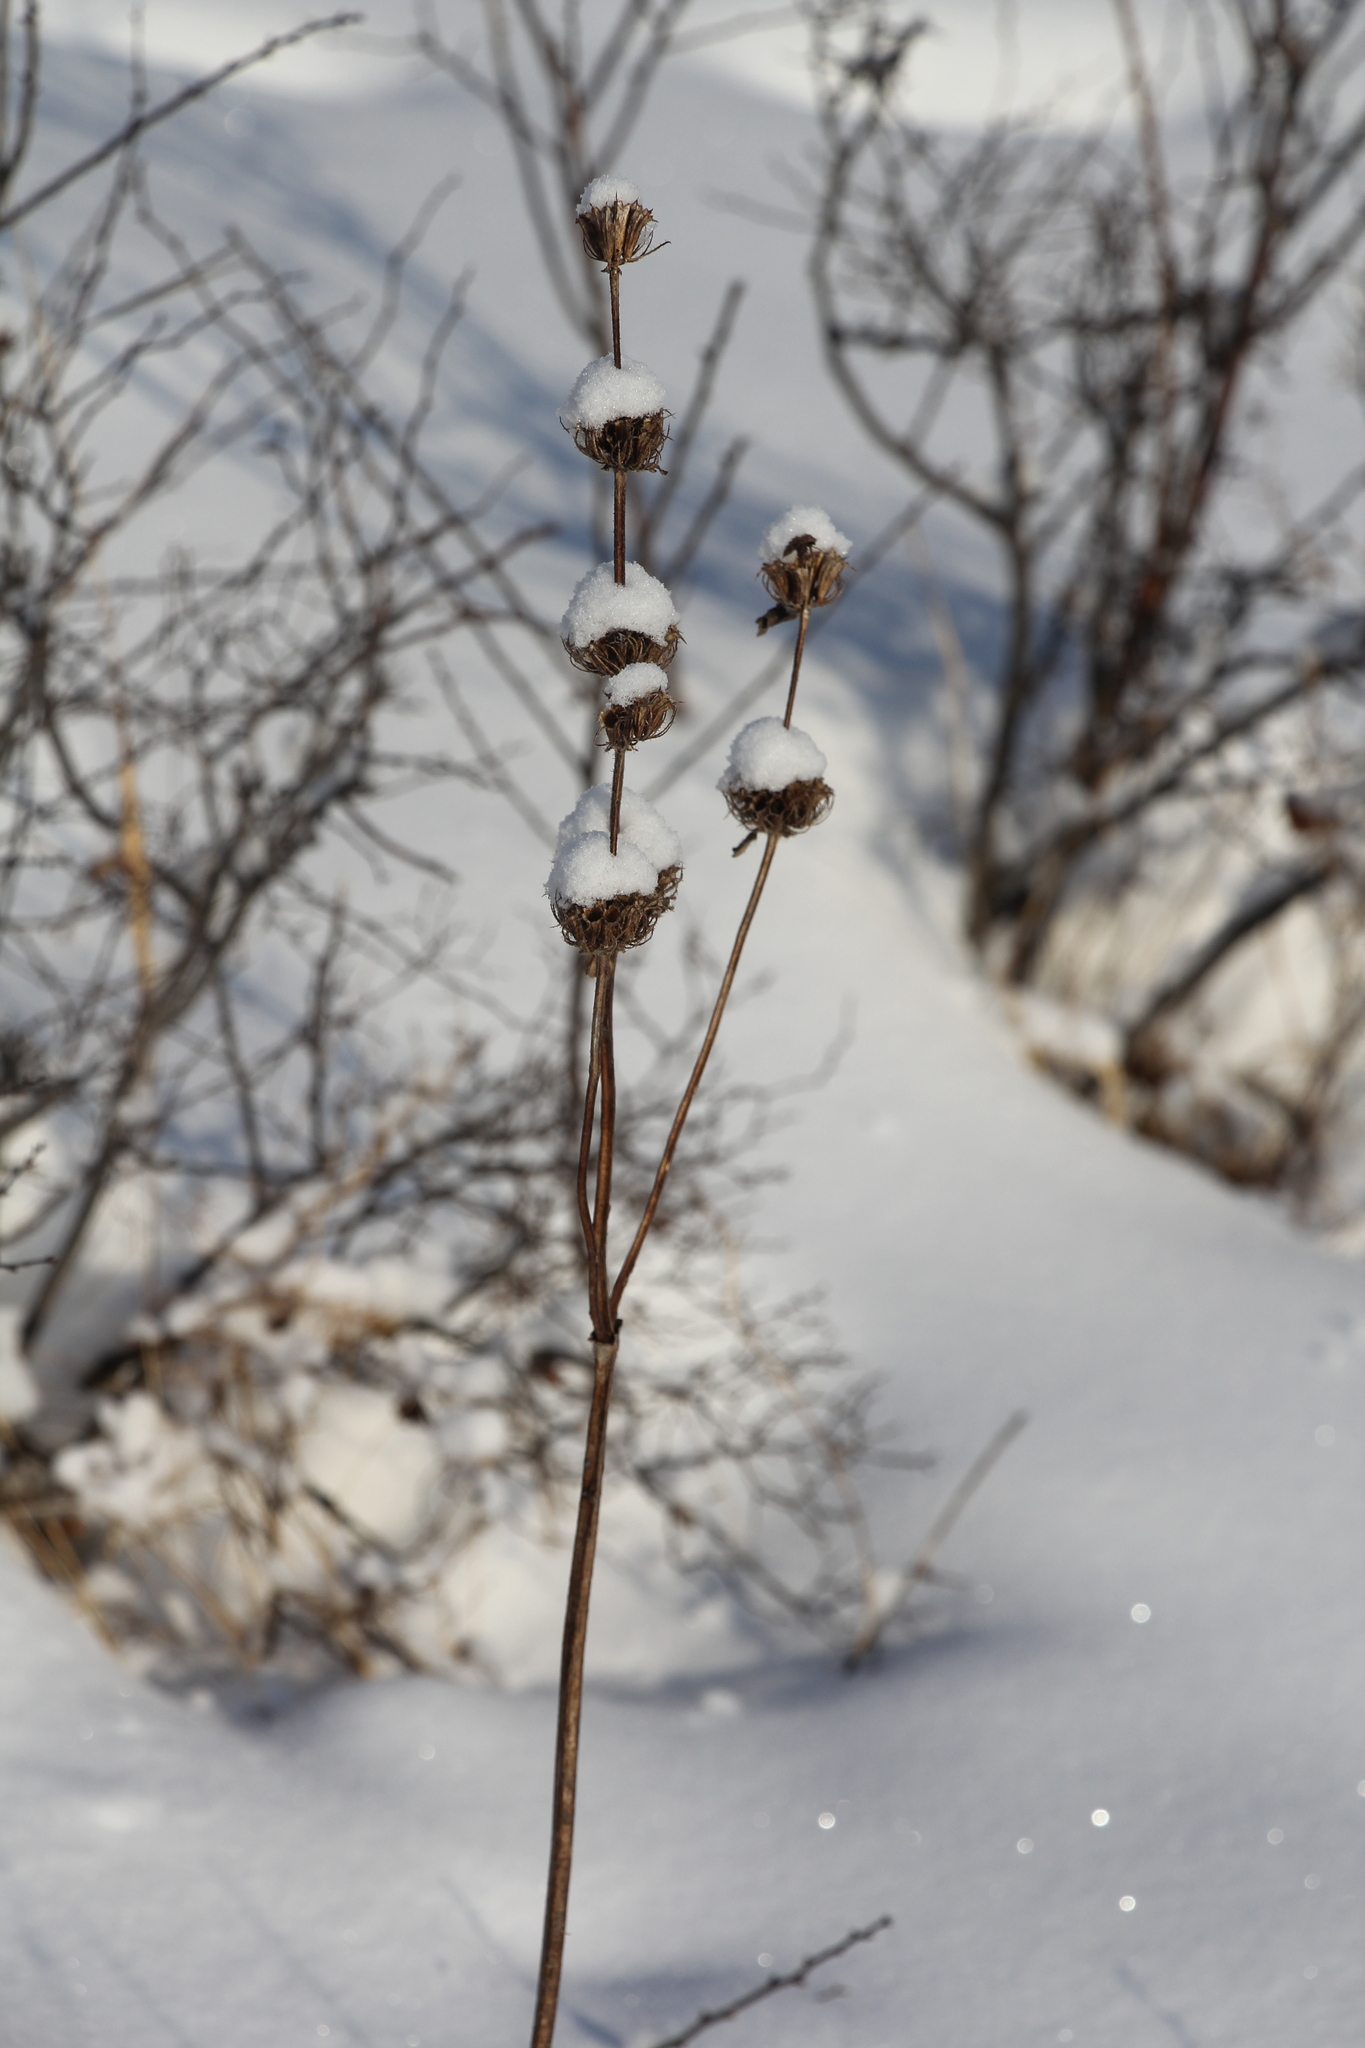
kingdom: Plantae
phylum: Tracheophyta
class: Magnoliopsida
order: Lamiales
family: Lamiaceae
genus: Phlomoides
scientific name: Phlomoides tuberosa
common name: Tuberous jerusalem sage
